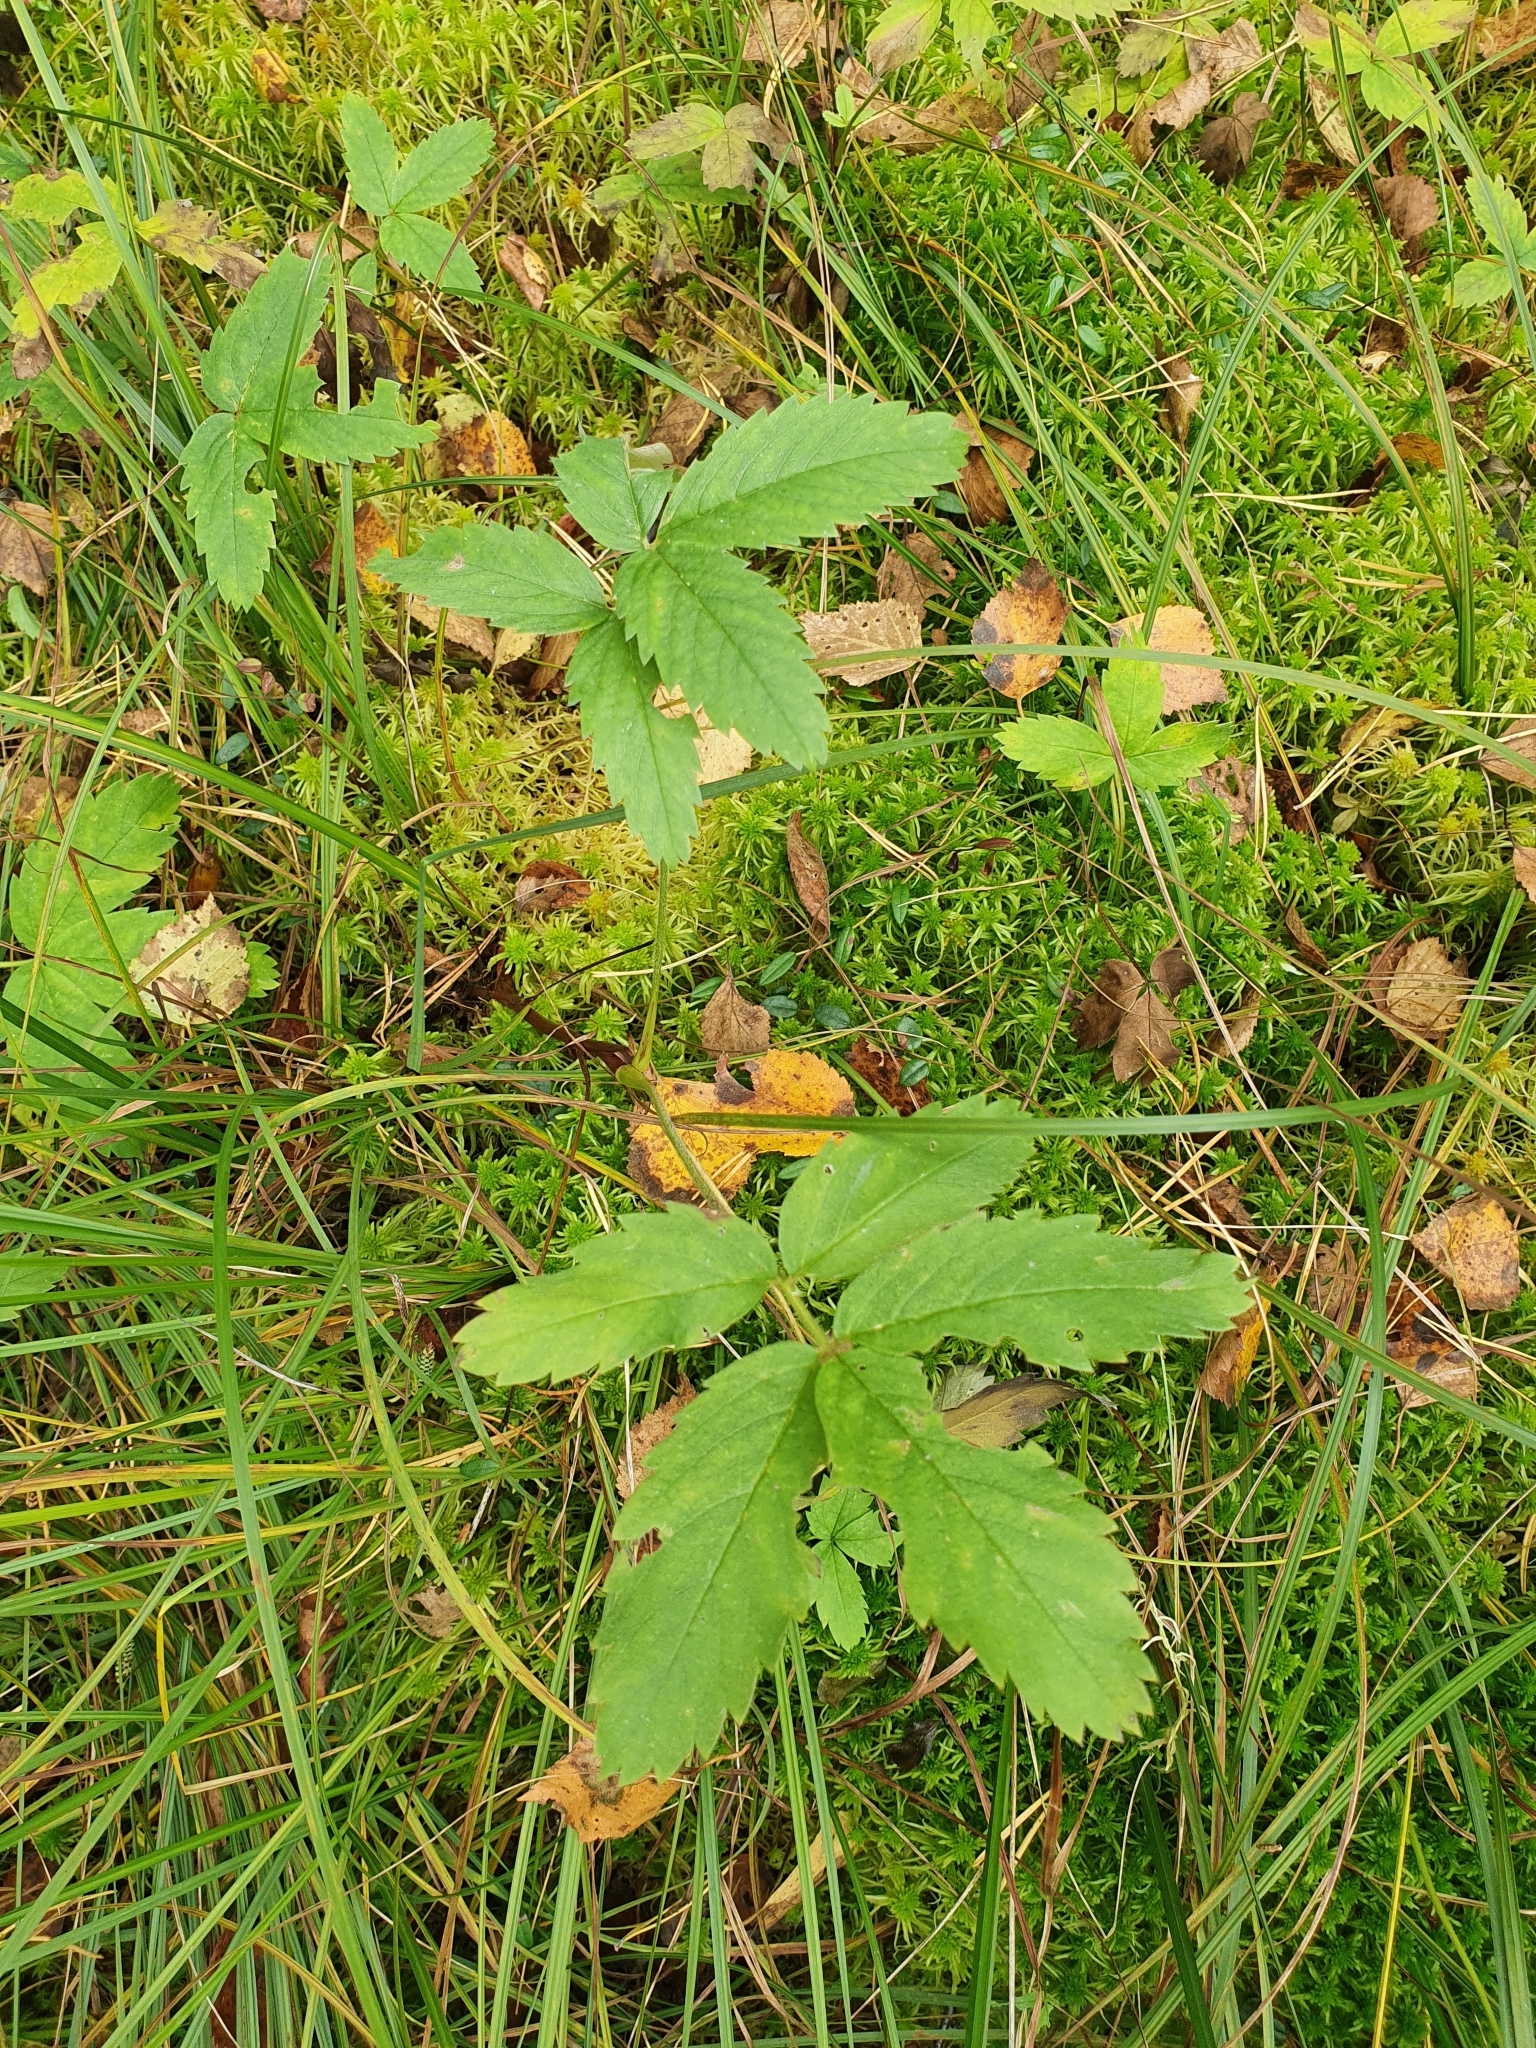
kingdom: Plantae
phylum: Tracheophyta
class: Magnoliopsida
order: Rosales
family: Rosaceae
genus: Comarum
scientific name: Comarum palustre
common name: Marsh cinquefoil
